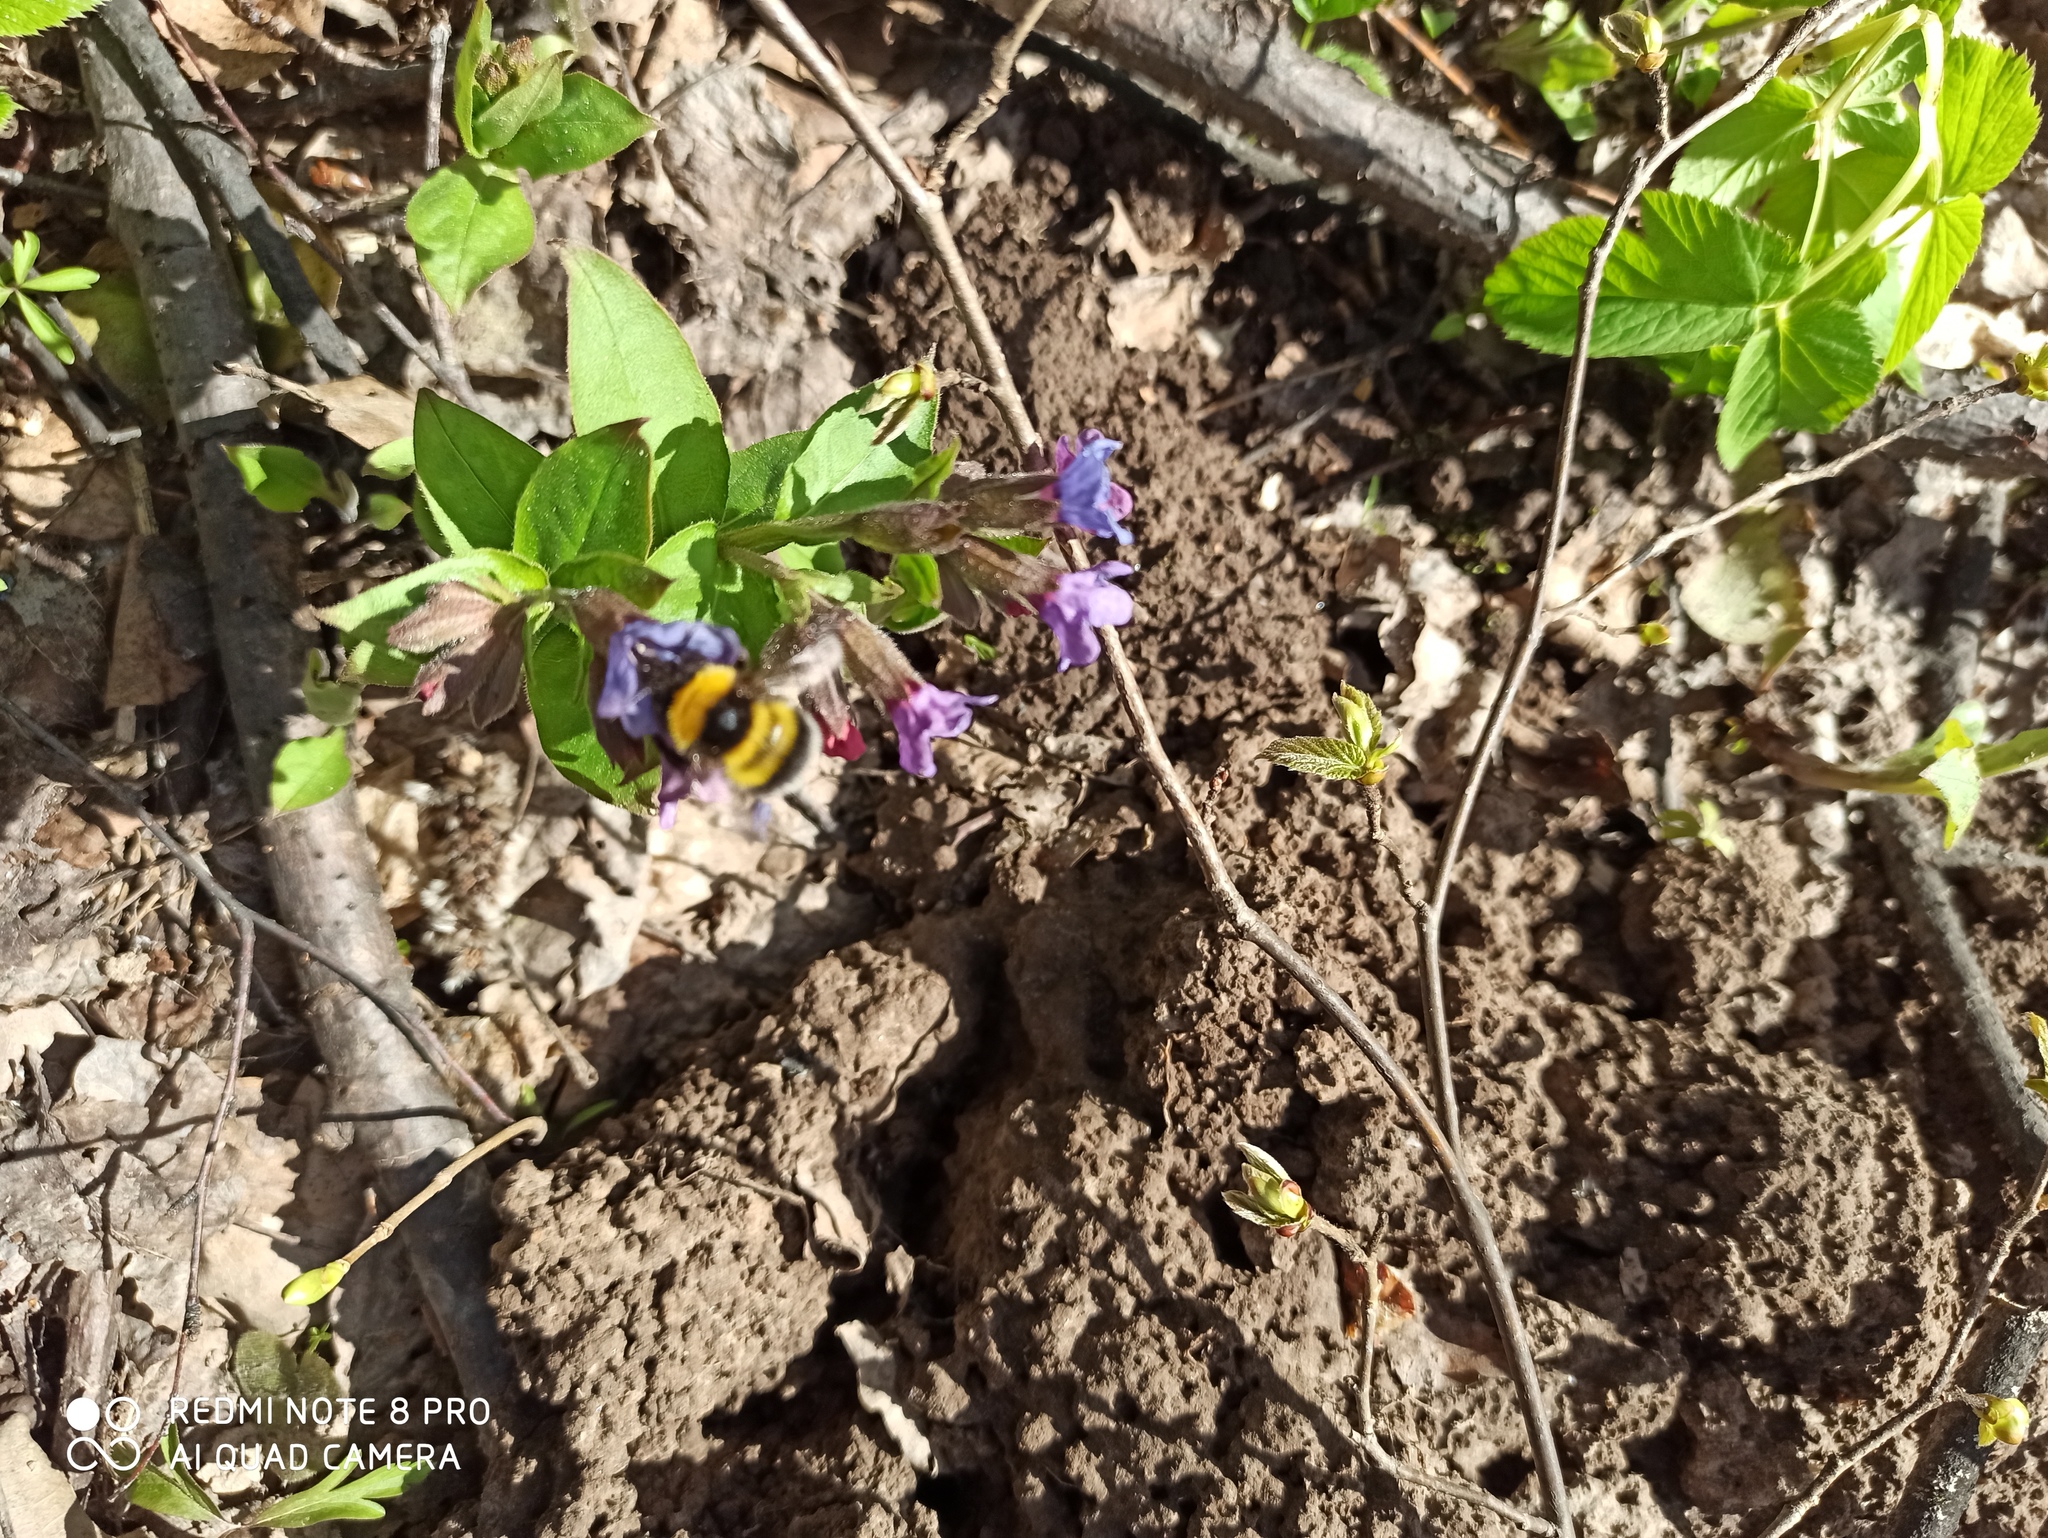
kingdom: Animalia
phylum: Arthropoda
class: Insecta
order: Hymenoptera
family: Apidae
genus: Bombus
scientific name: Bombus hortorum
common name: Garden bumblebee
